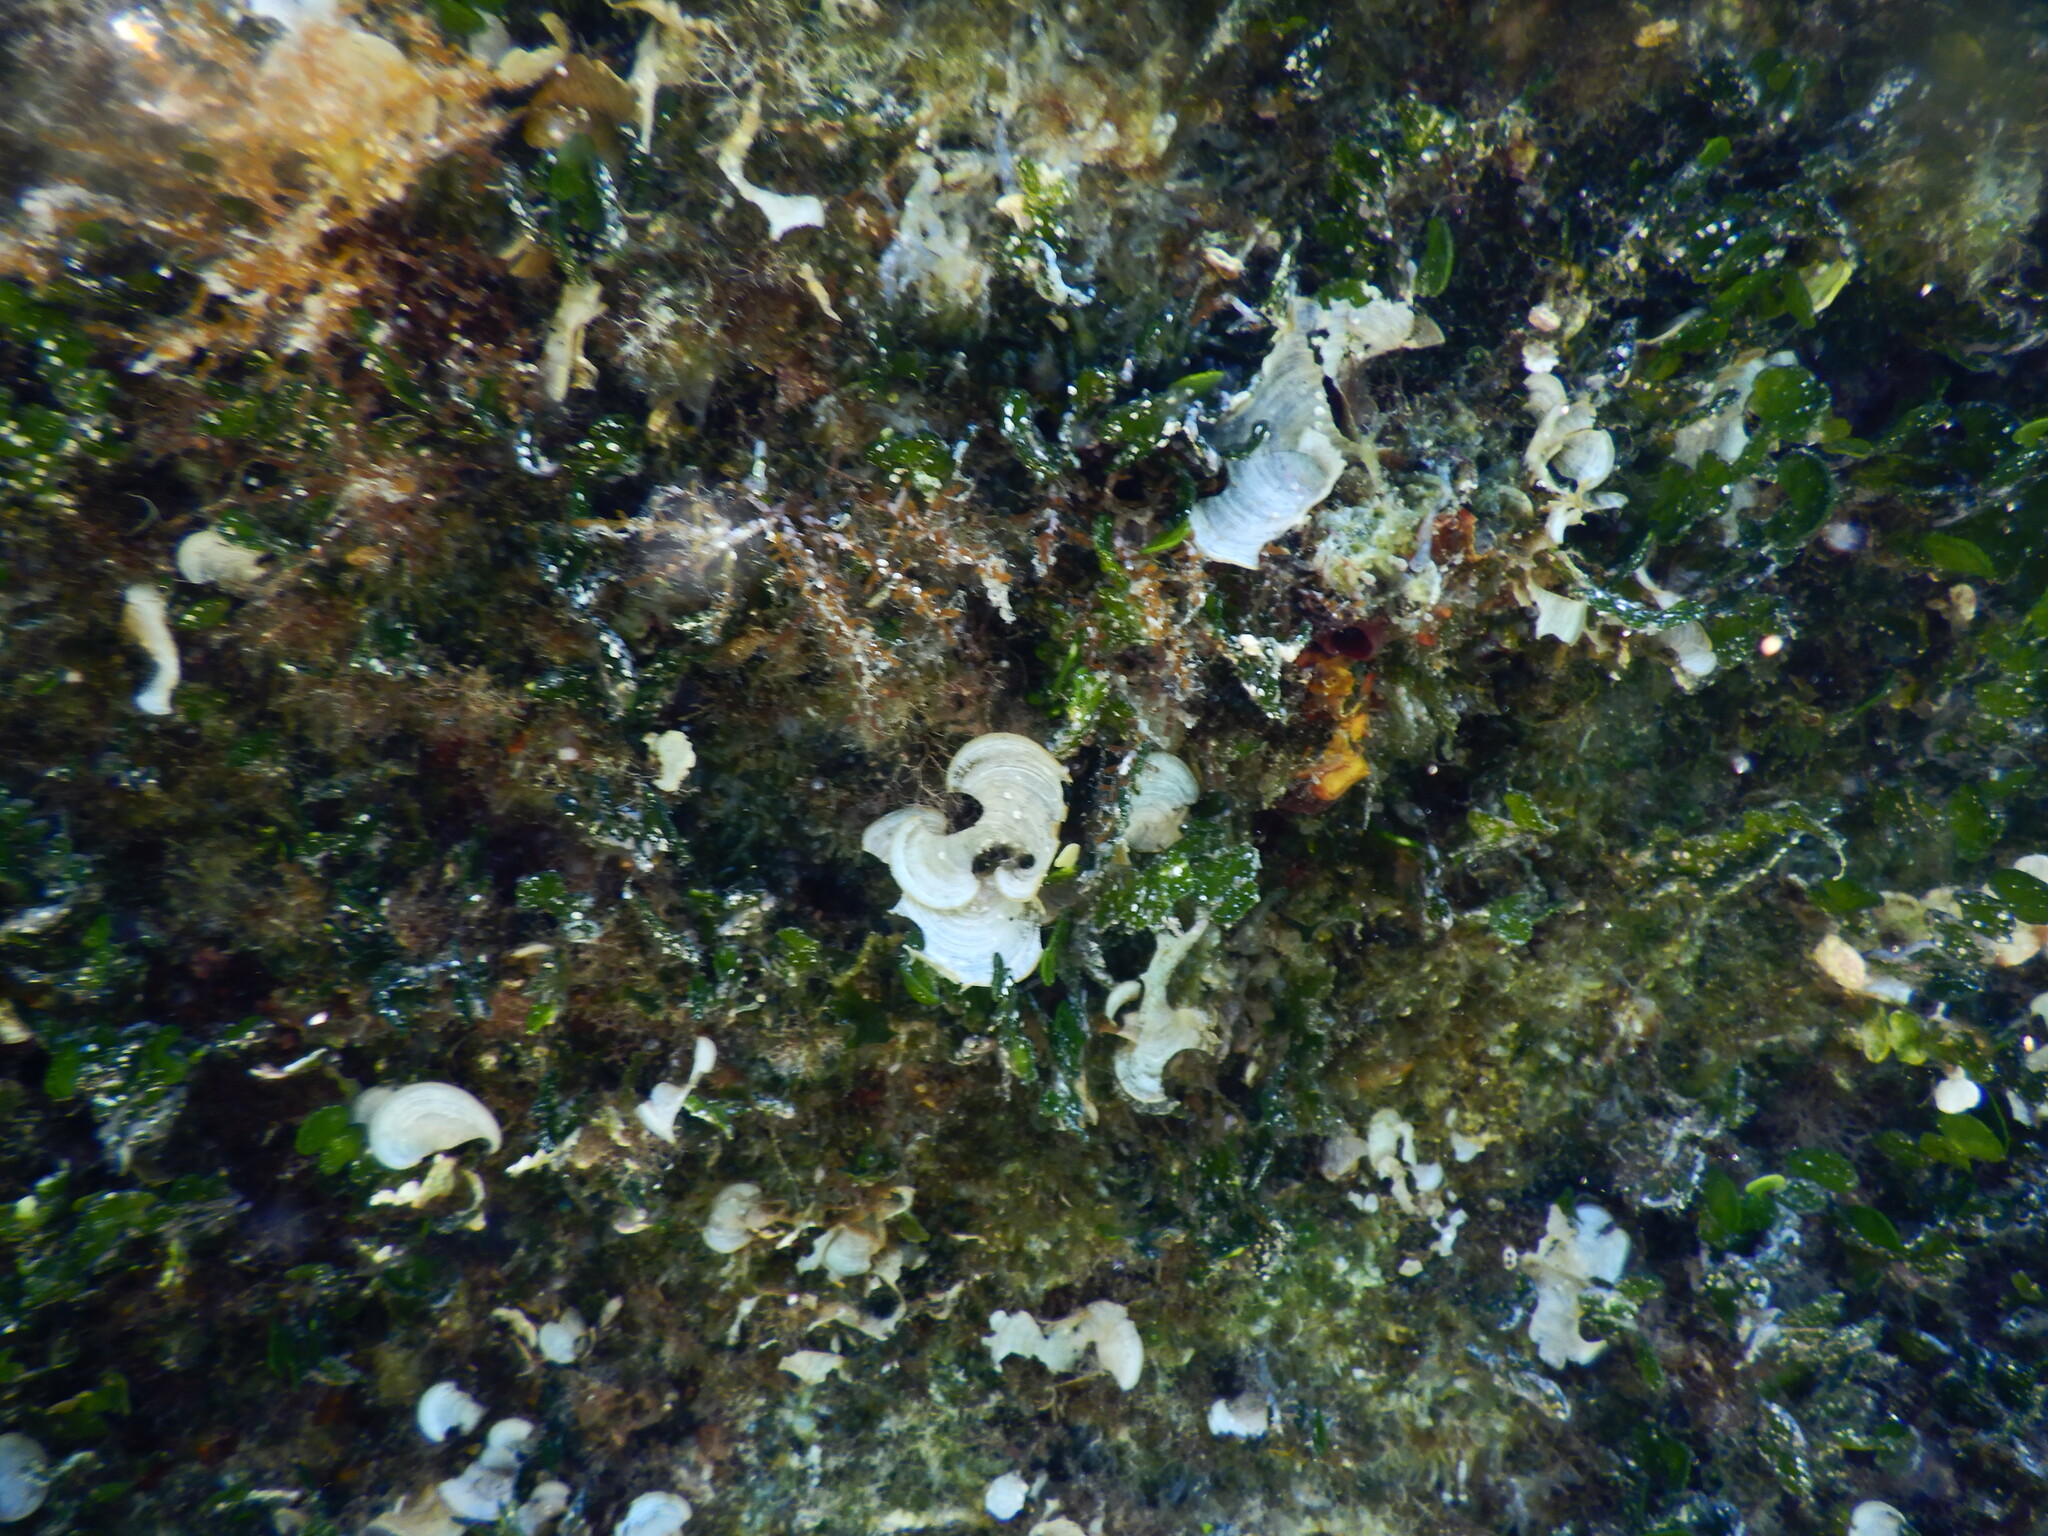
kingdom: Chromista
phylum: Ochrophyta
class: Phaeophyceae
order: Dictyotales
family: Dictyotaceae
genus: Padina
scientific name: Padina
